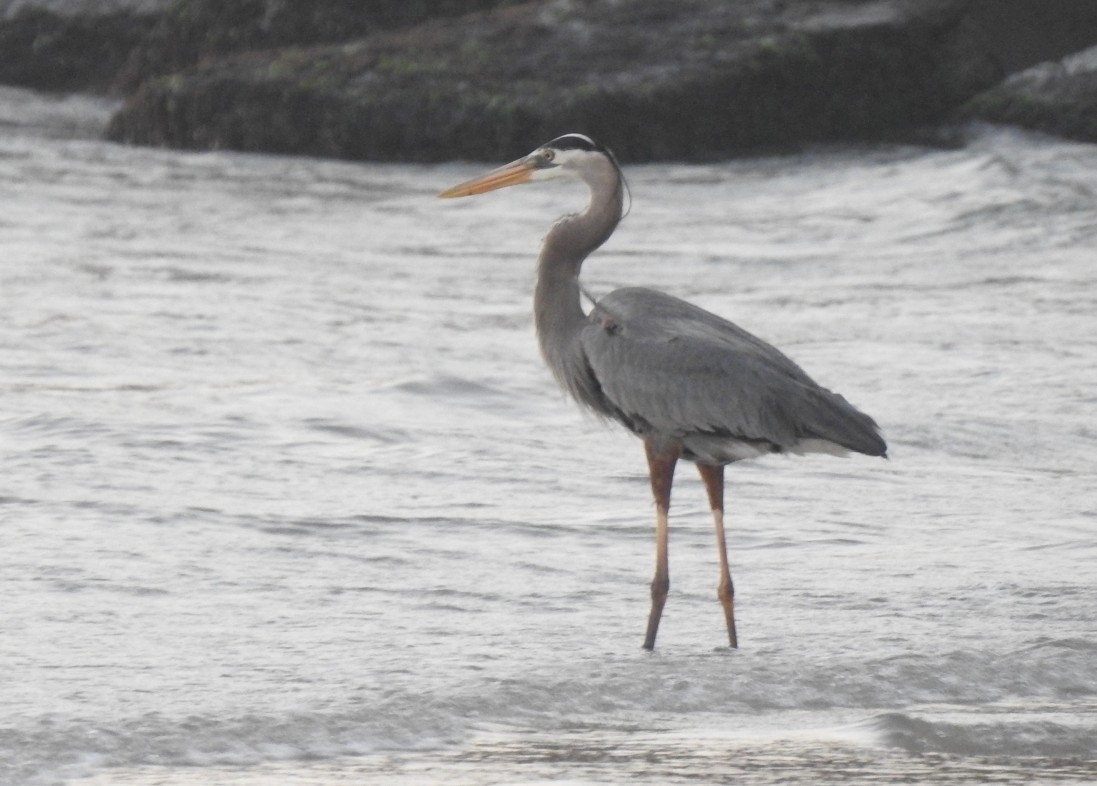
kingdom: Animalia
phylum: Chordata
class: Aves
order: Pelecaniformes
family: Ardeidae
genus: Ardea
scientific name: Ardea herodias
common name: Great blue heron
